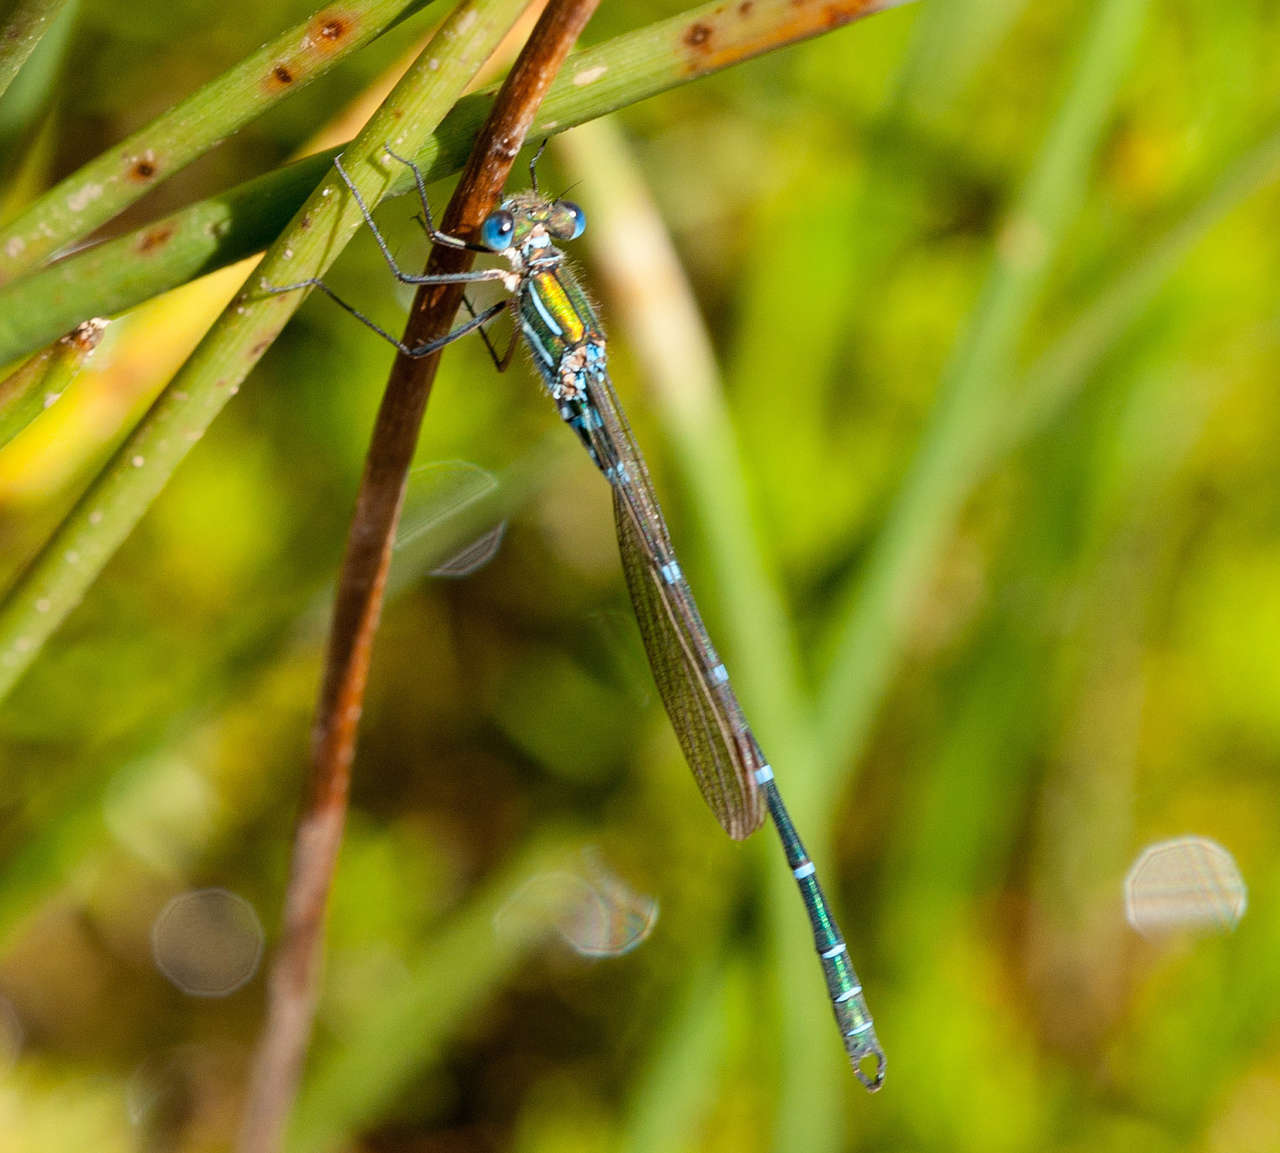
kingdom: Animalia
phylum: Arthropoda
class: Insecta
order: Odonata
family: Lestidae
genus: Austrolestes
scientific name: Austrolestes cingulatus
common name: Metallic ringtail
